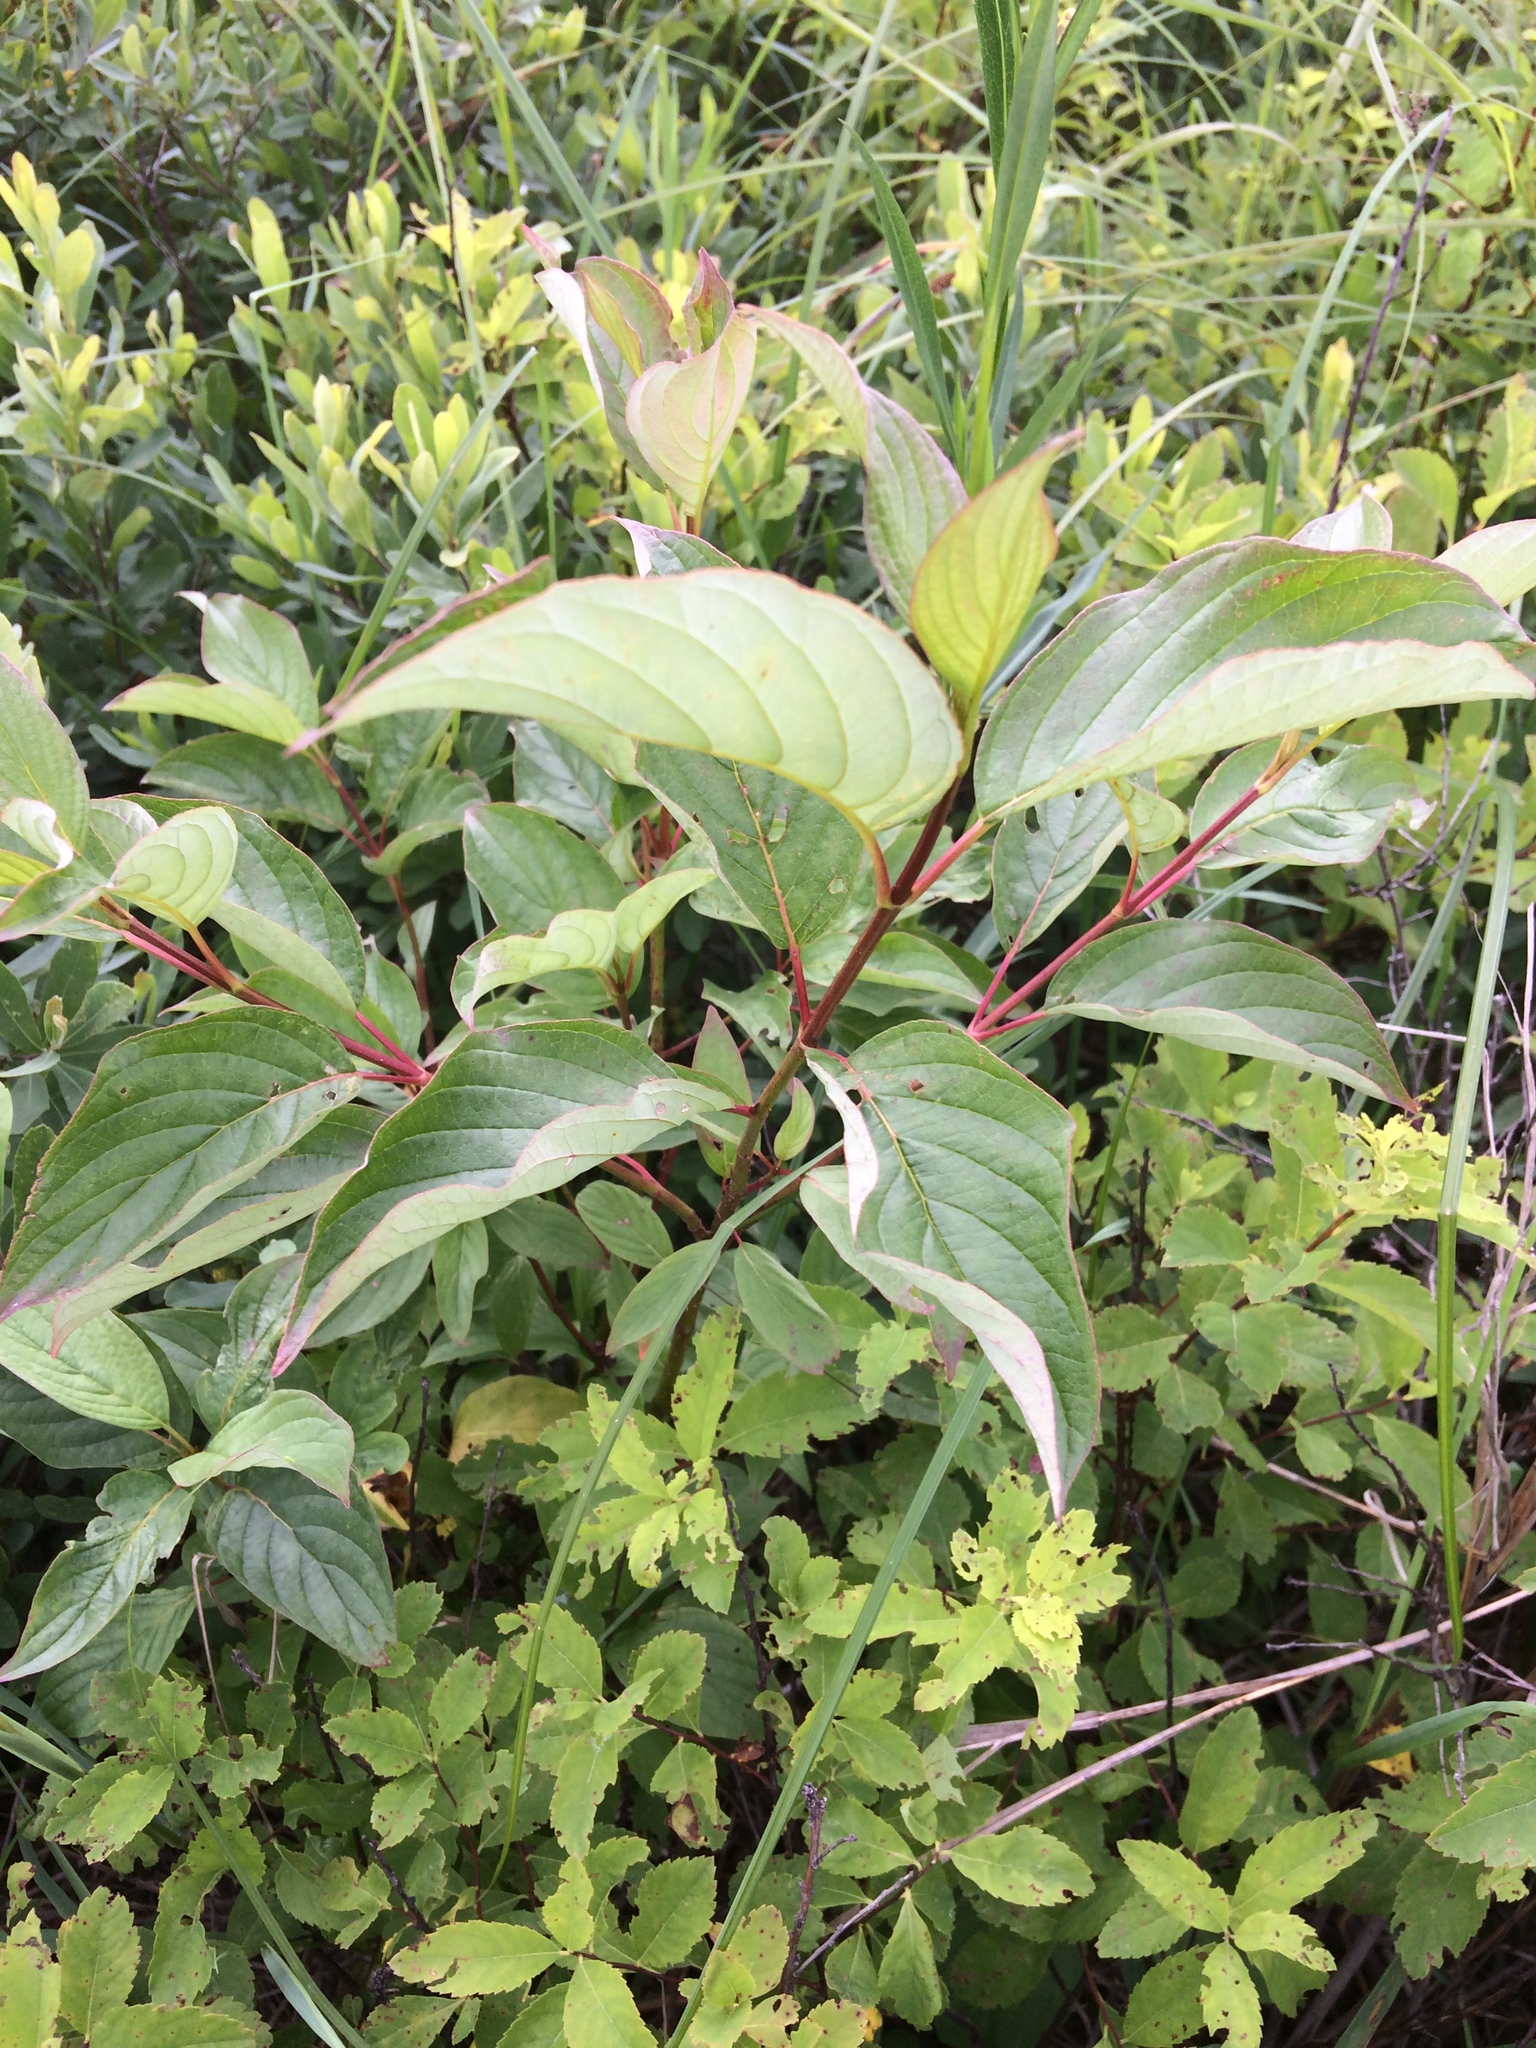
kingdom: Plantae
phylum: Tracheophyta
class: Magnoliopsida
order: Cornales
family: Cornaceae
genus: Cornus
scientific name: Cornus sericea
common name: Red-osier dogwood
